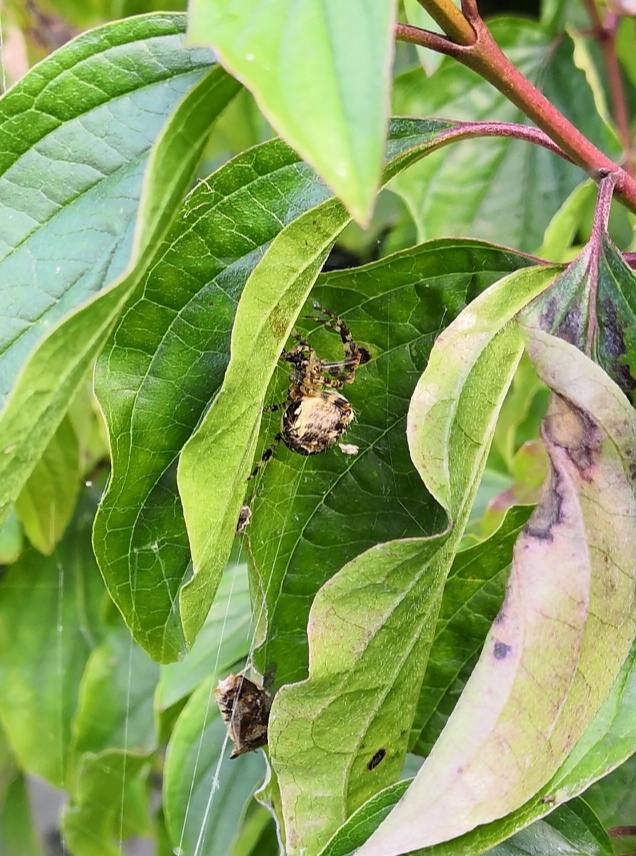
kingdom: Animalia
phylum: Arthropoda
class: Arachnida
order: Araneae
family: Araneidae
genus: Araneus
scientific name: Araneus diadematus
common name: Cross orbweaver
